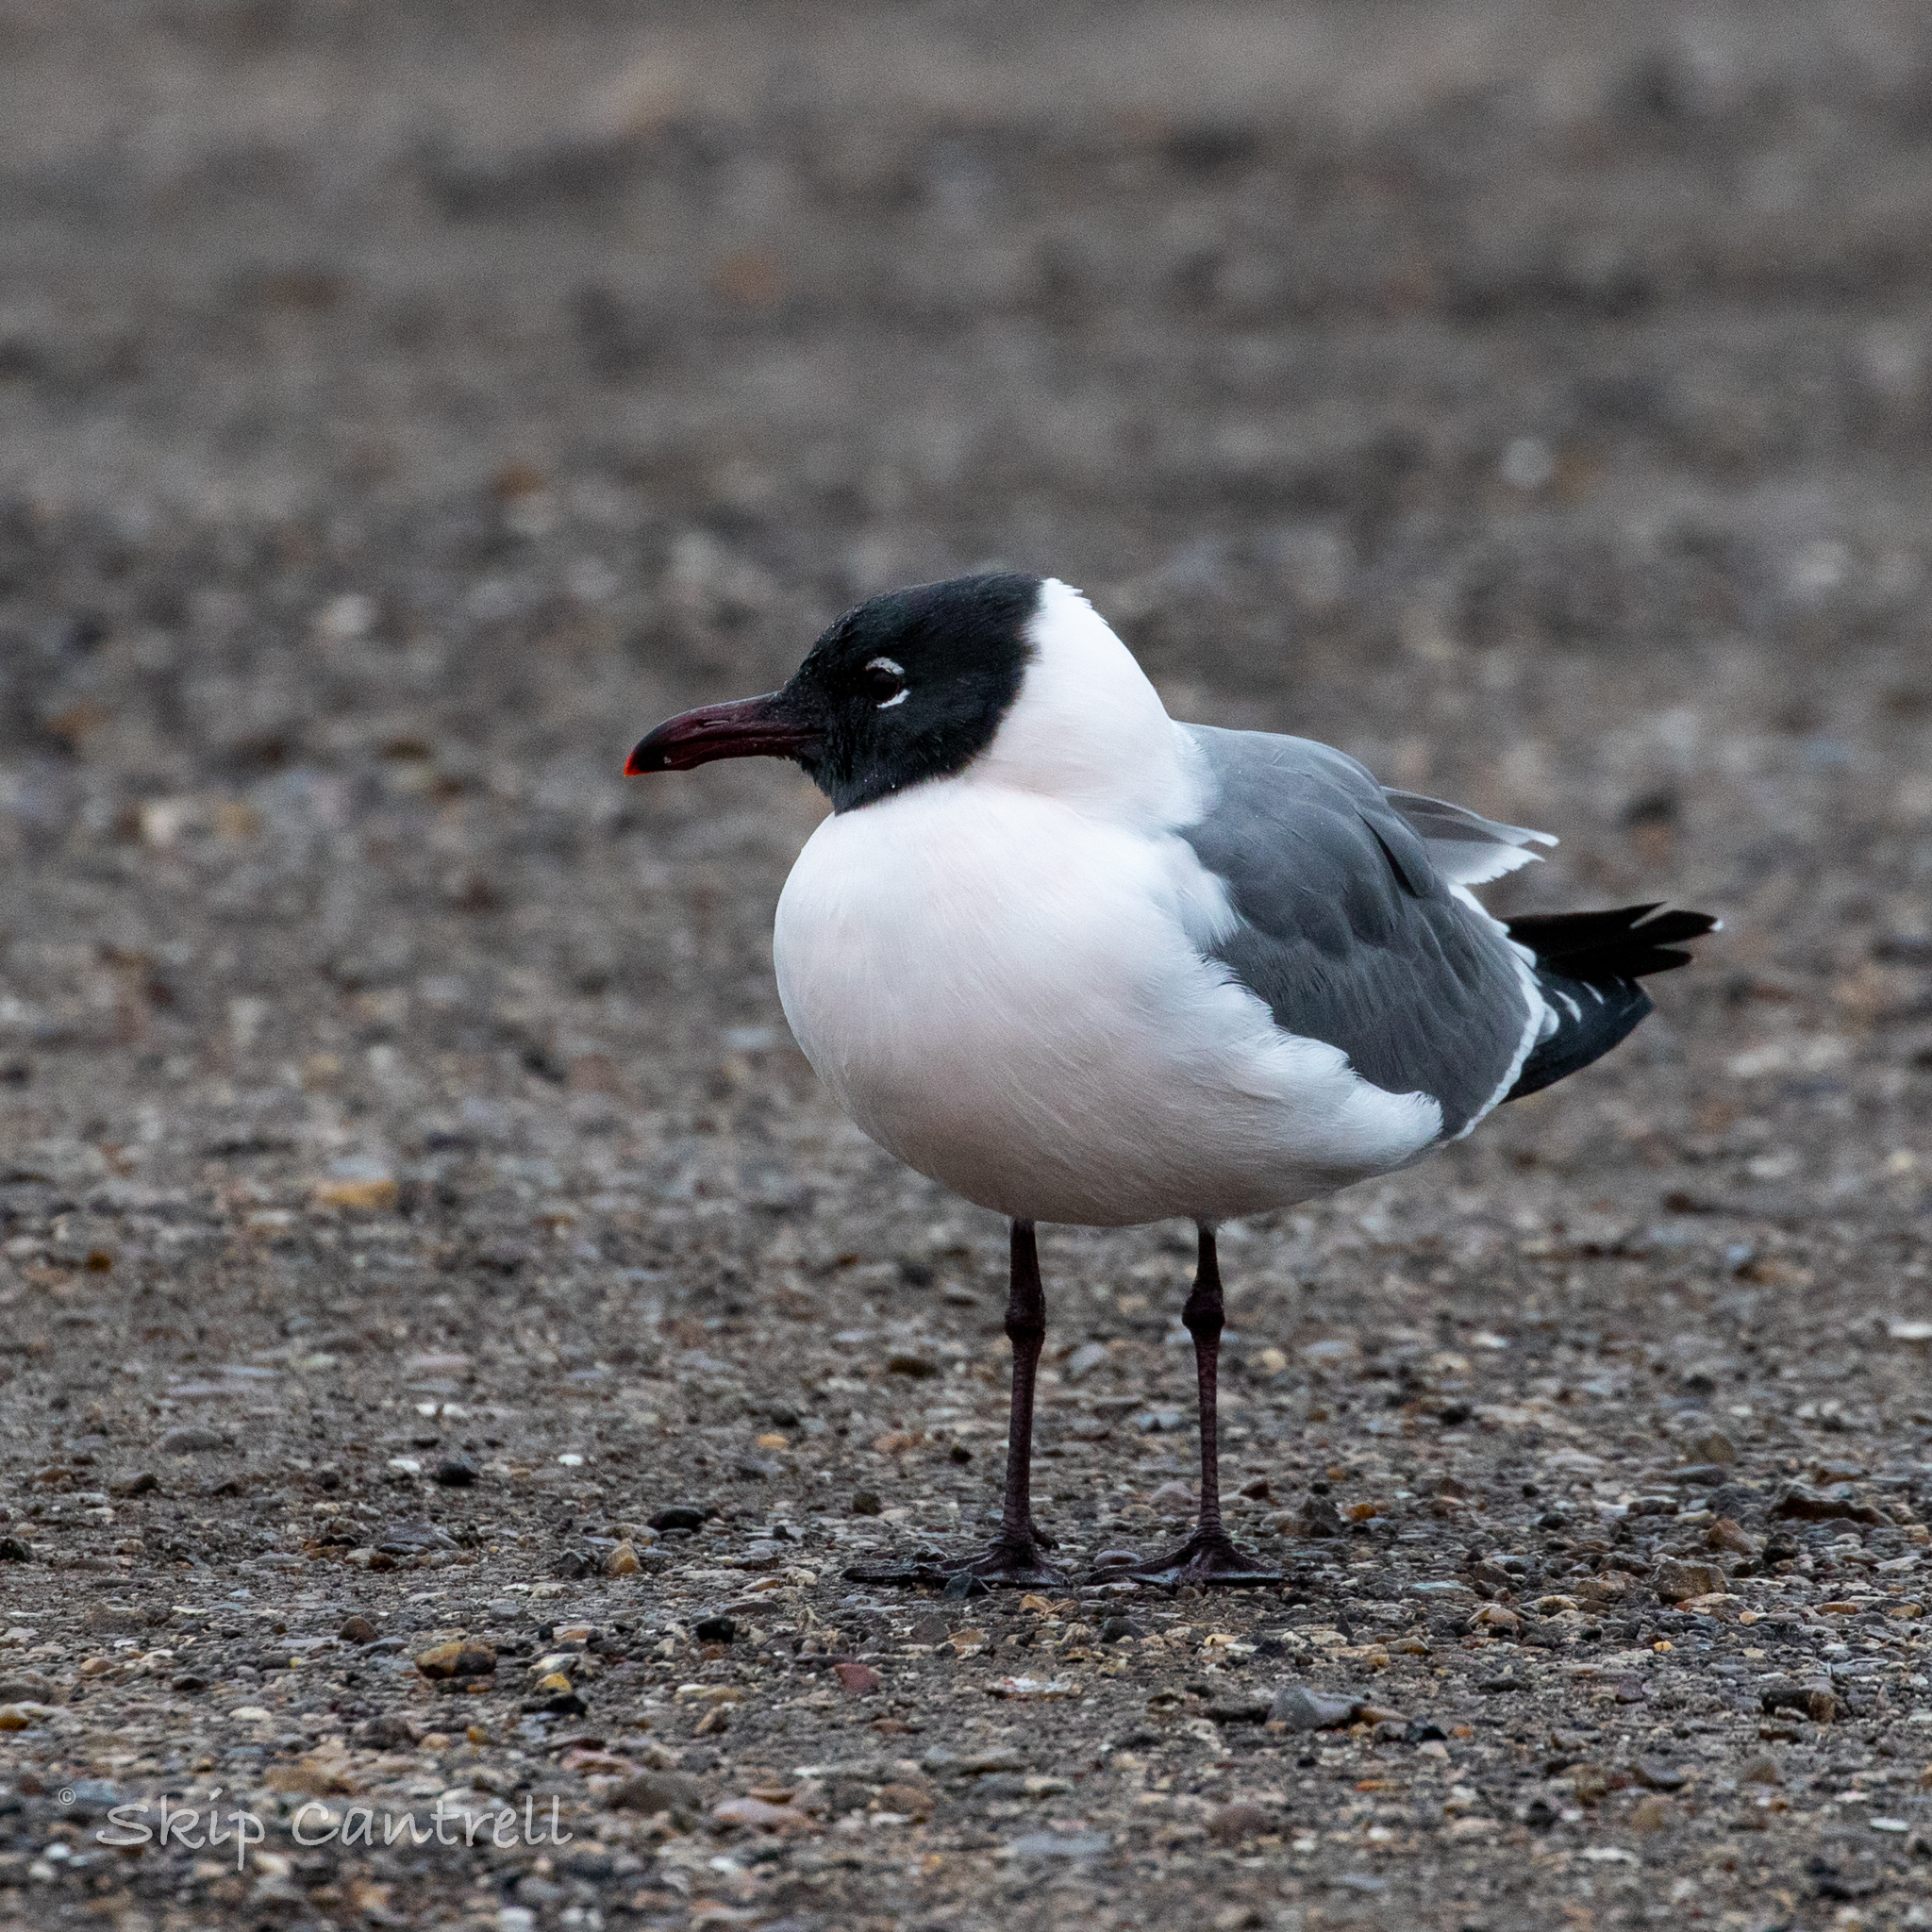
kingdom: Animalia
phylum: Chordata
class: Aves
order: Charadriiformes
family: Laridae
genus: Leucophaeus
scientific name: Leucophaeus atricilla
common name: Laughing gull
